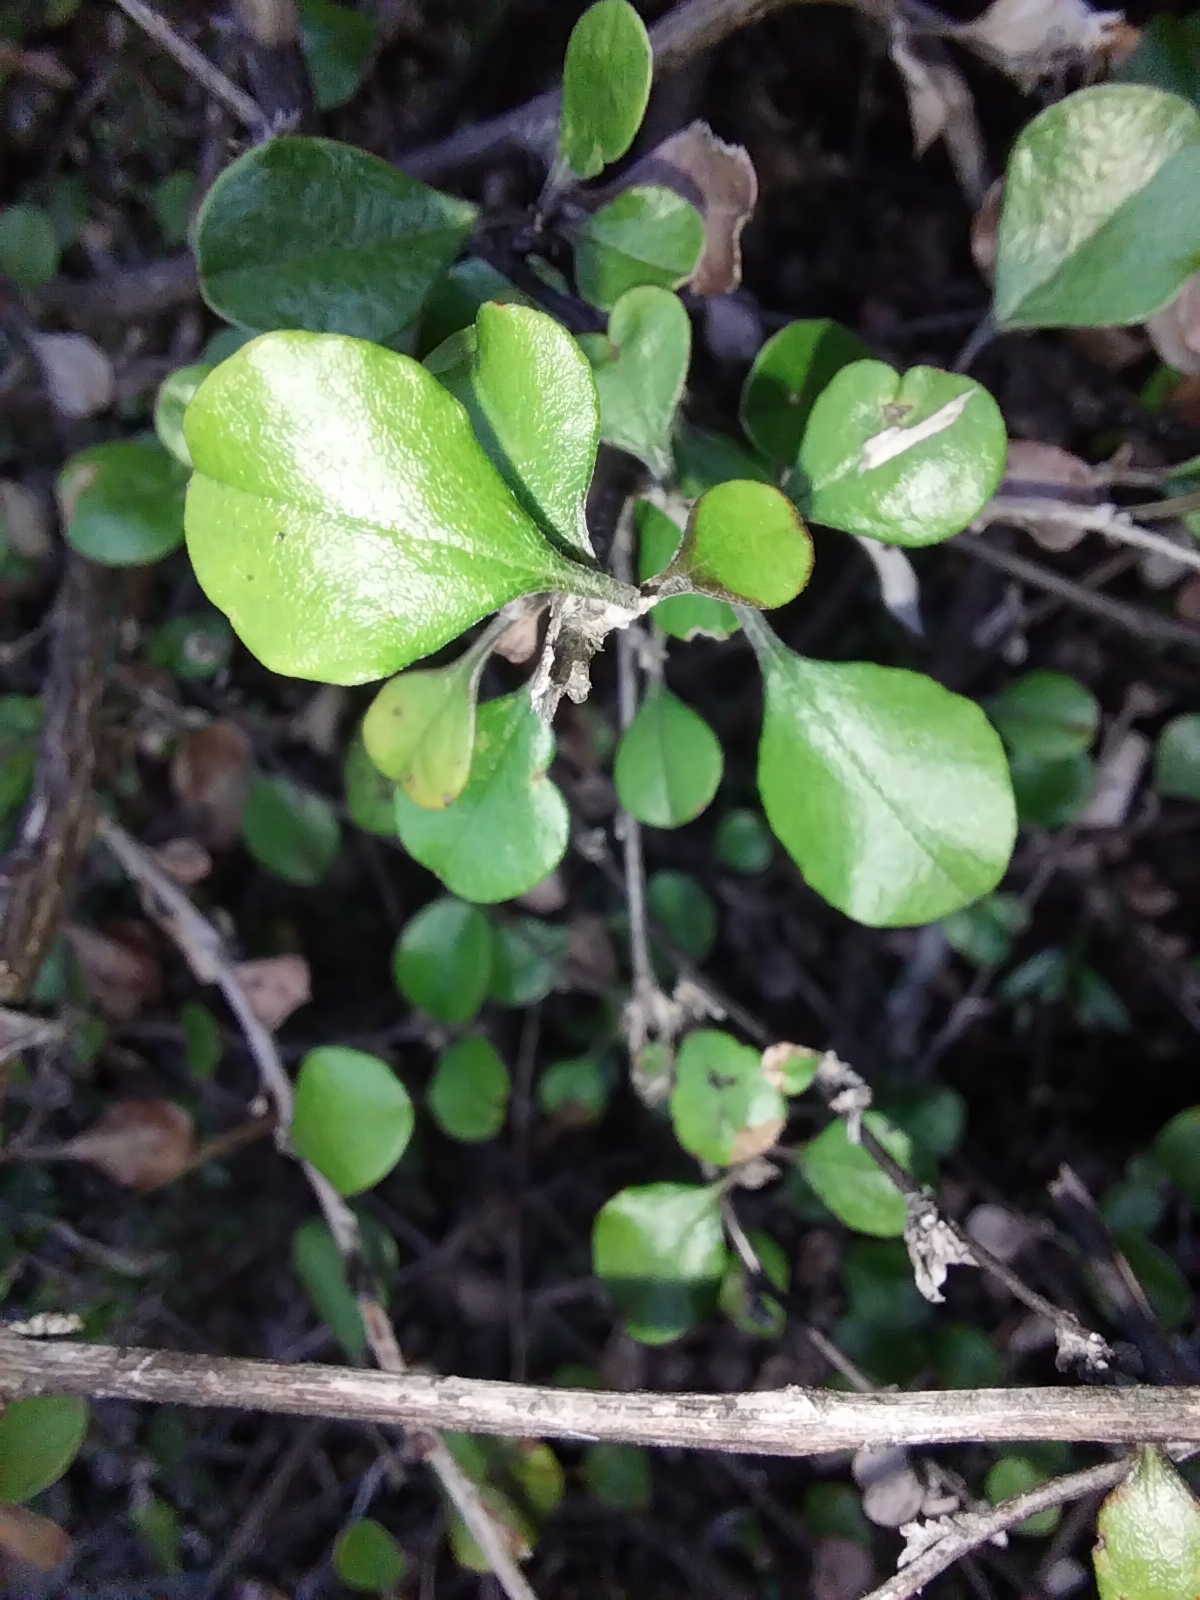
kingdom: Plantae
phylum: Tracheophyta
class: Magnoliopsida
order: Asterales
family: Asteraceae
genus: Ozothamnus
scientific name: Ozothamnus glomeratus
